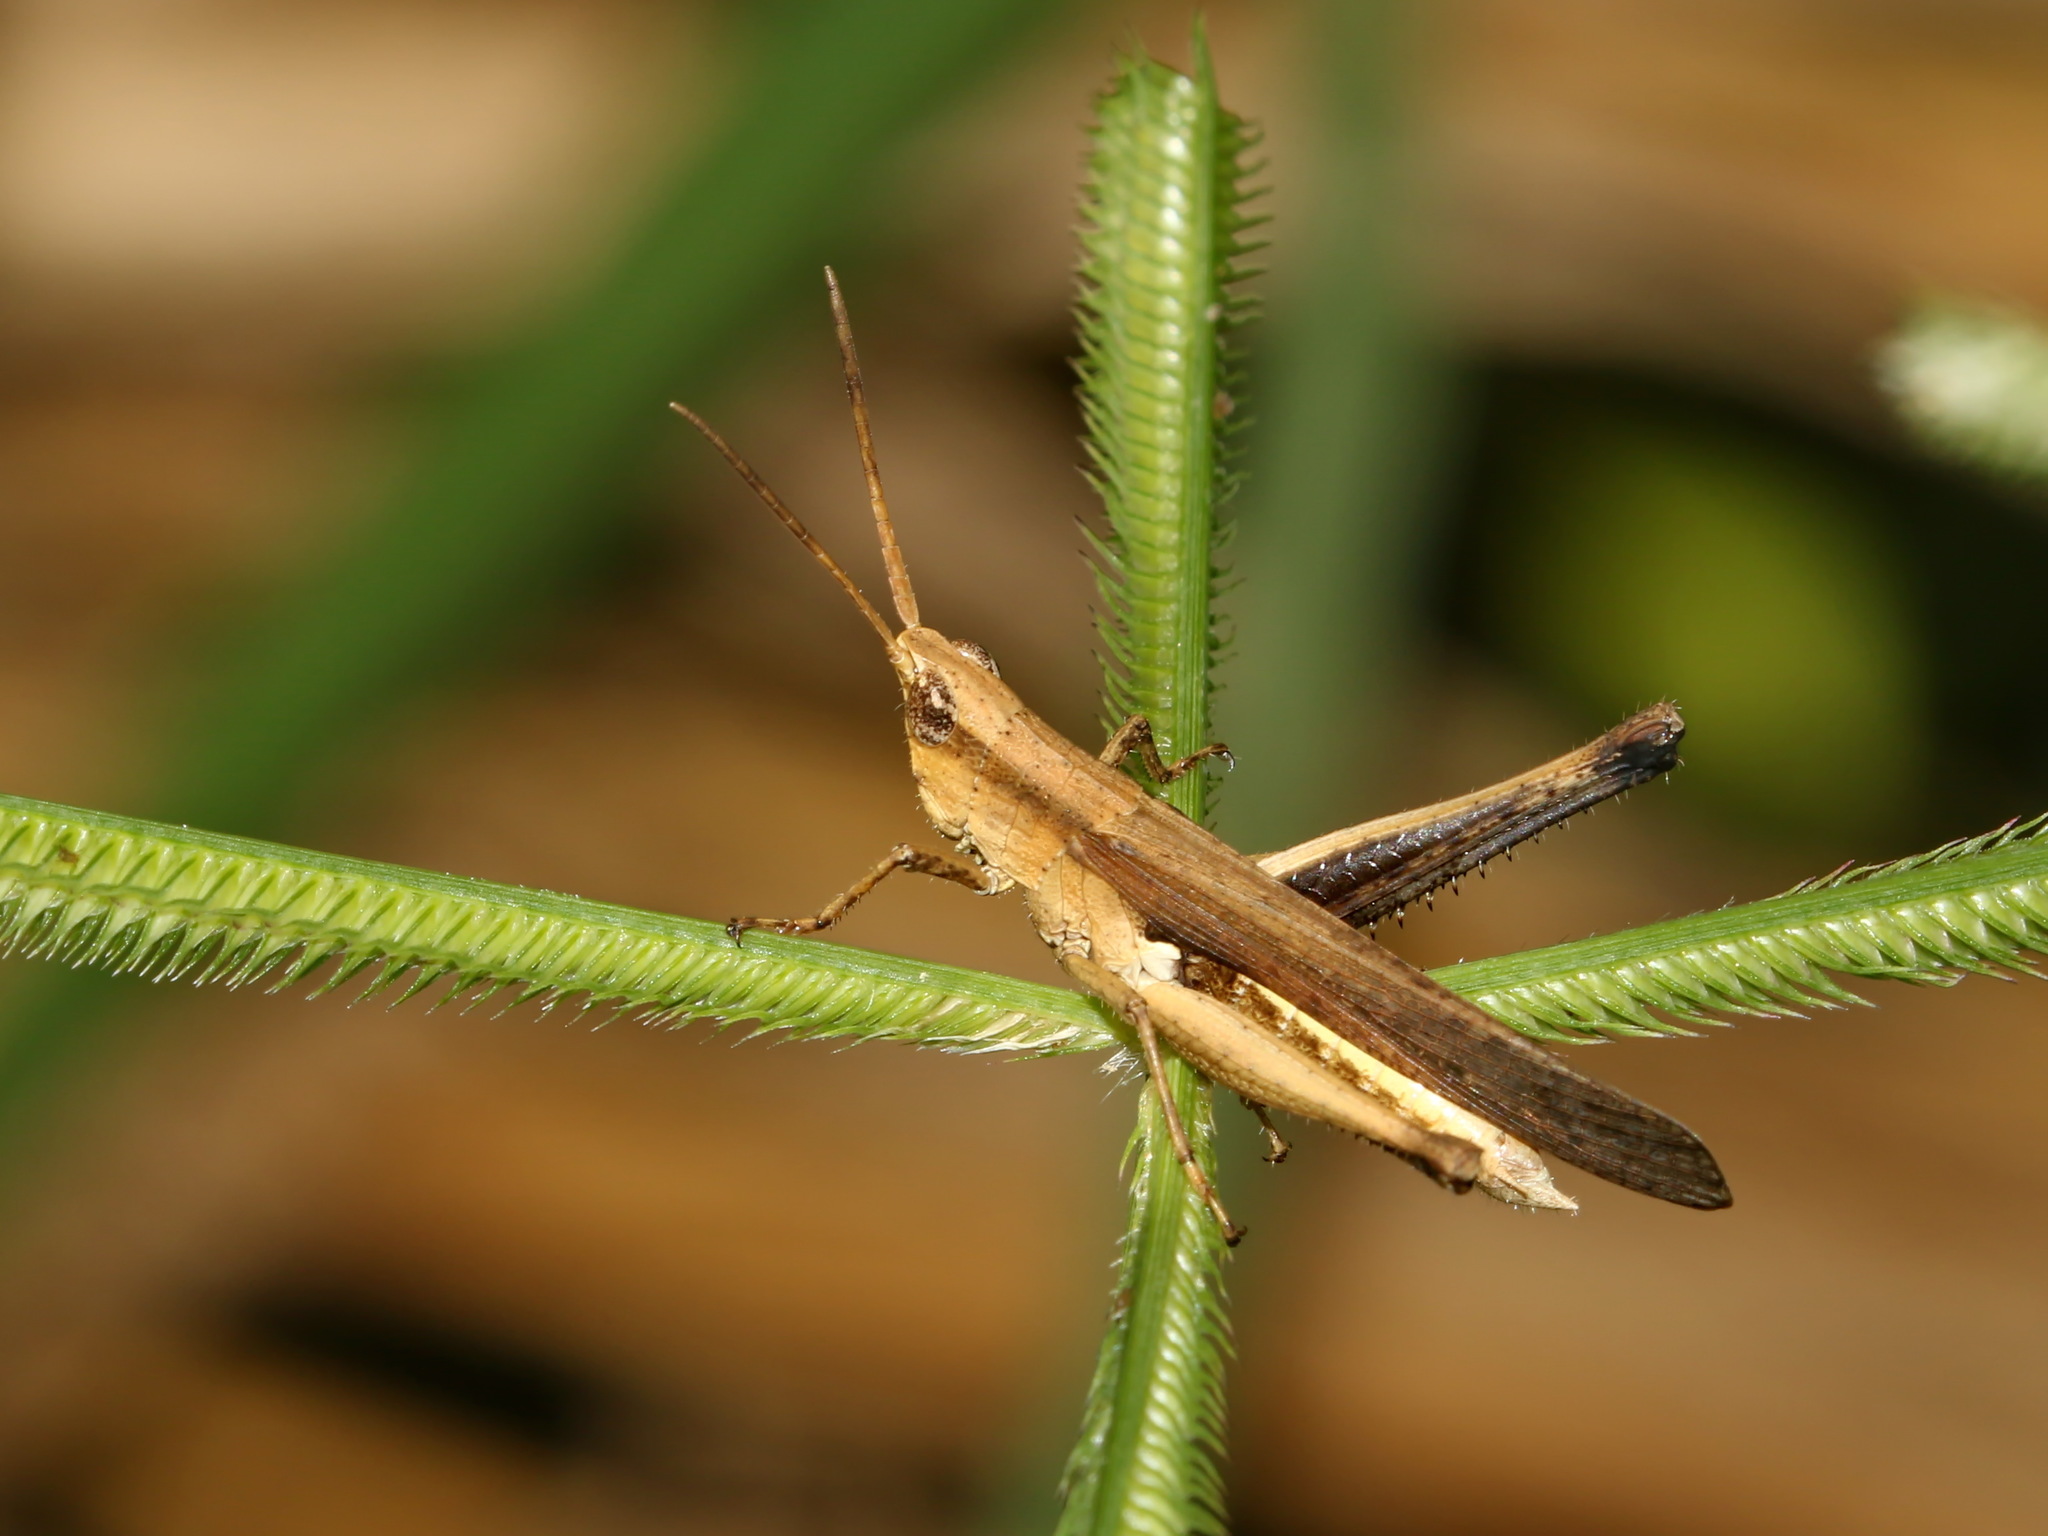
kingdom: Animalia
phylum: Arthropoda
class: Insecta
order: Orthoptera
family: Acrididae
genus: Phlaeoba
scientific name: Phlaeoba infumata
